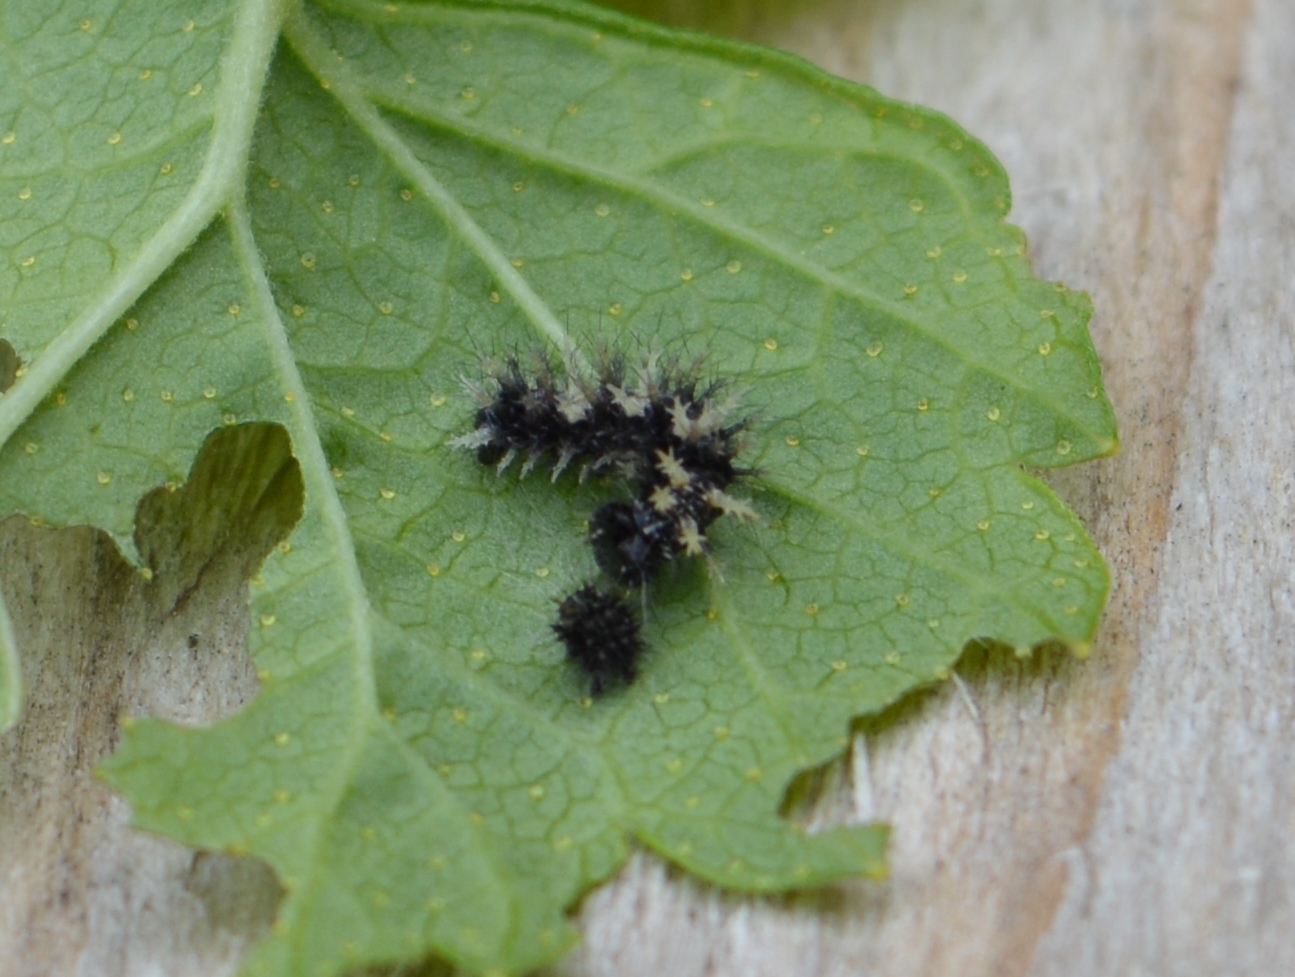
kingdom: Animalia
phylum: Arthropoda
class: Insecta
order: Lepidoptera
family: Nymphalidae
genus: Polygonia
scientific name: Polygonia c-album
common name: Comma
